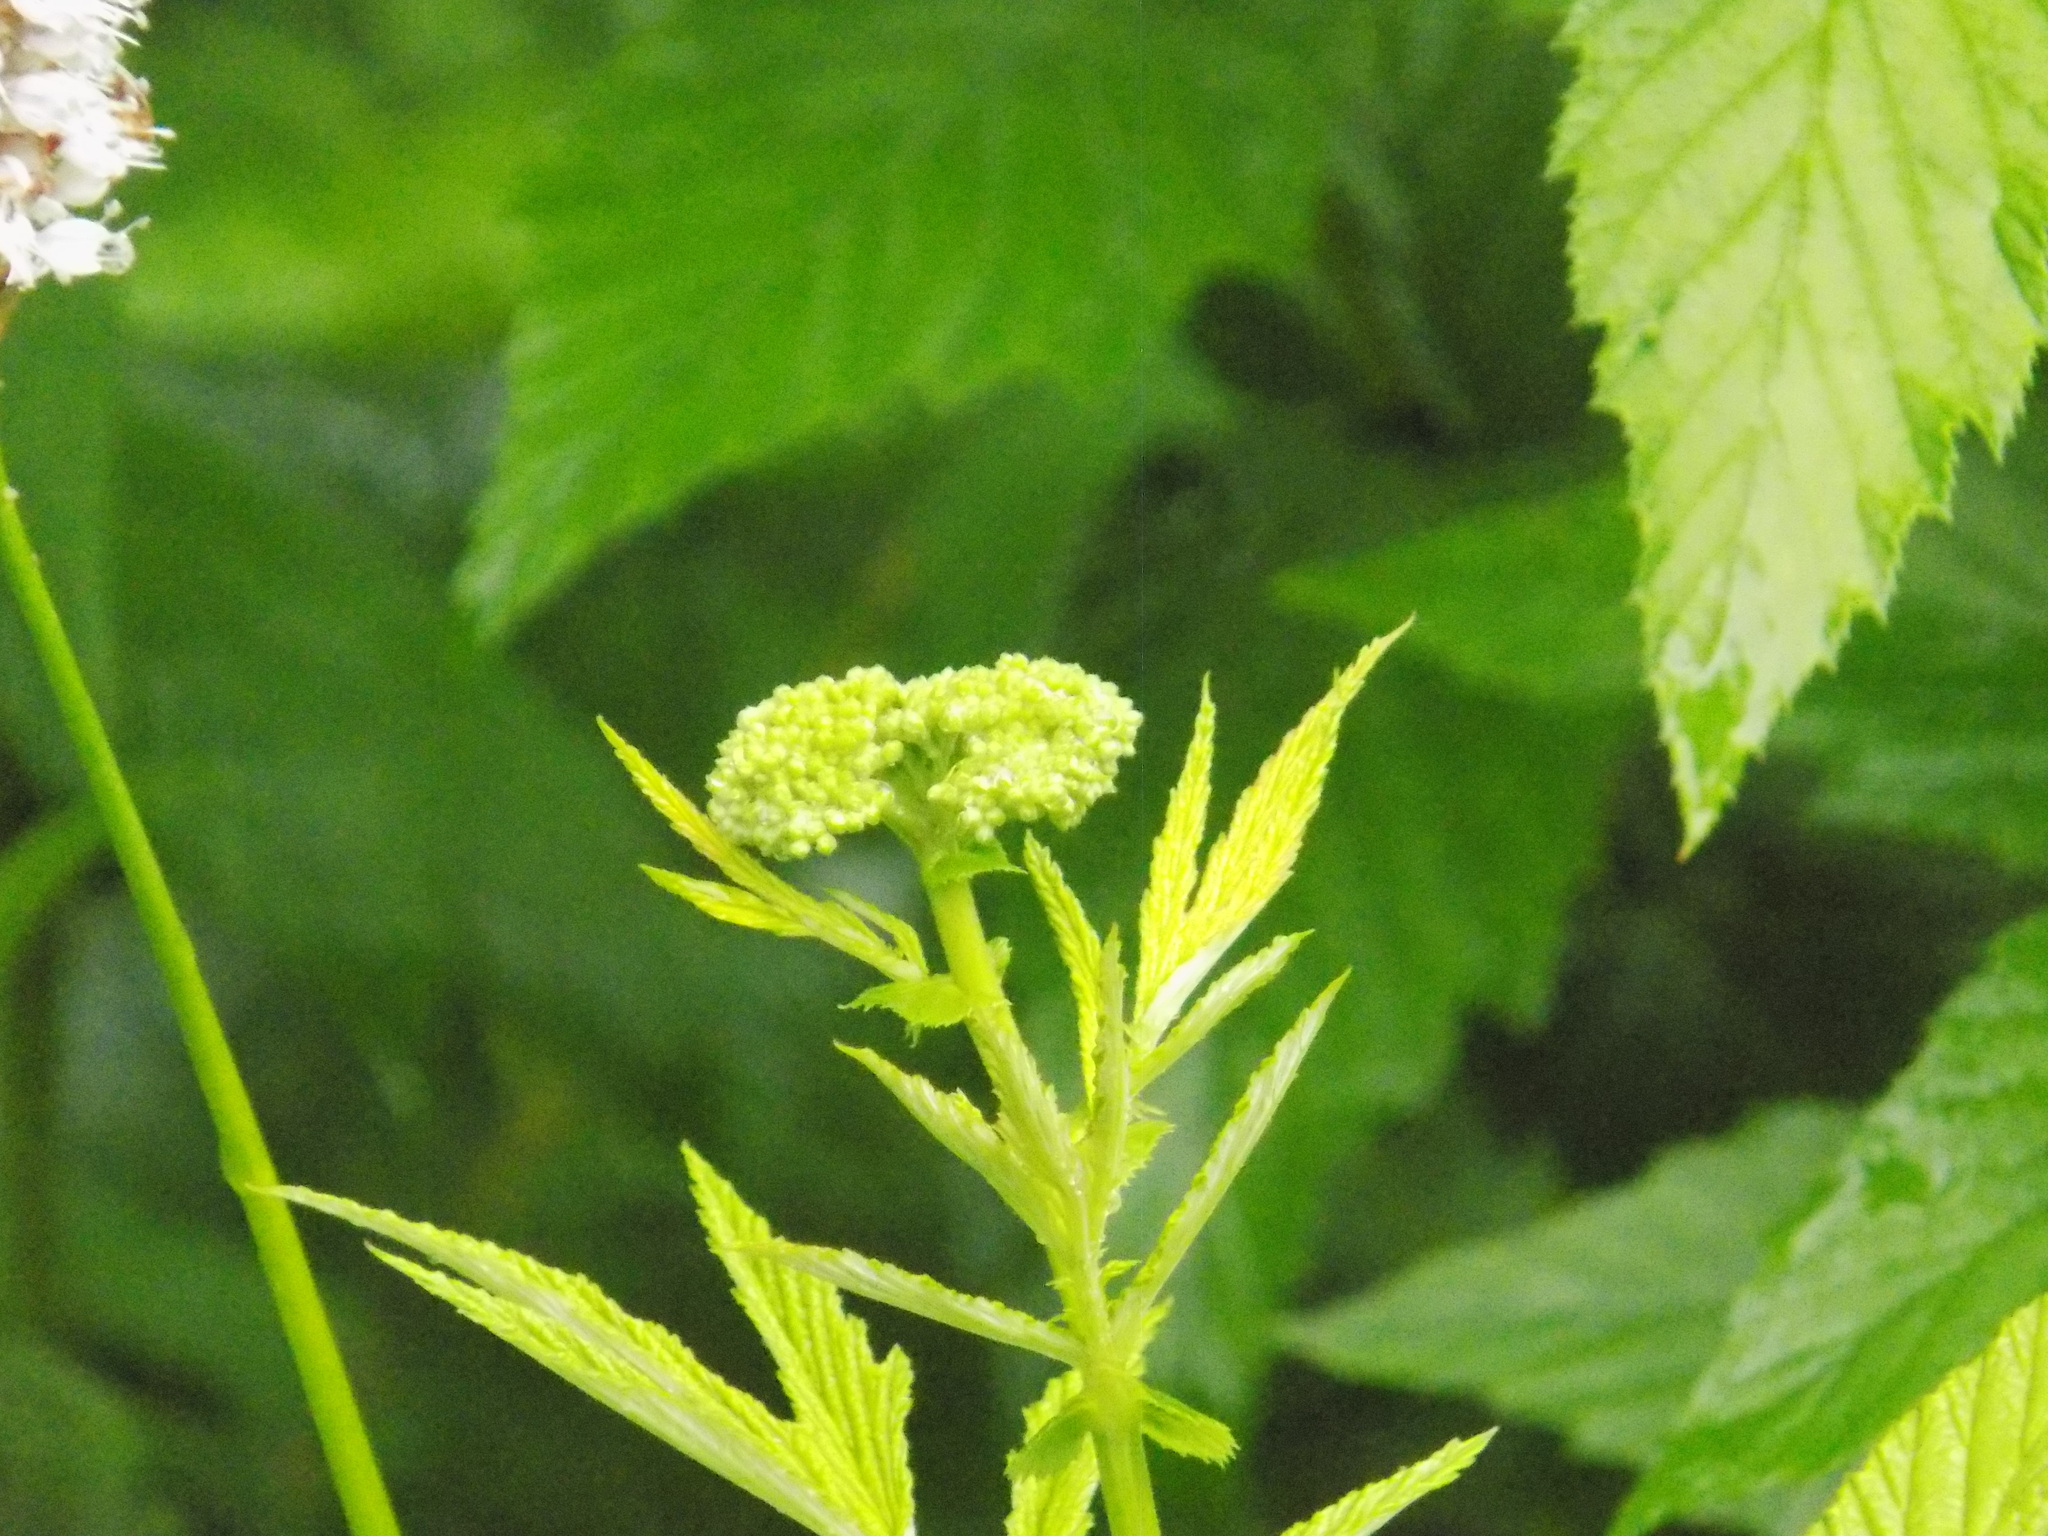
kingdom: Plantae
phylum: Tracheophyta
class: Magnoliopsida
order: Rosales
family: Rosaceae
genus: Filipendula
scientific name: Filipendula ulmaria
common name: Meadowsweet
